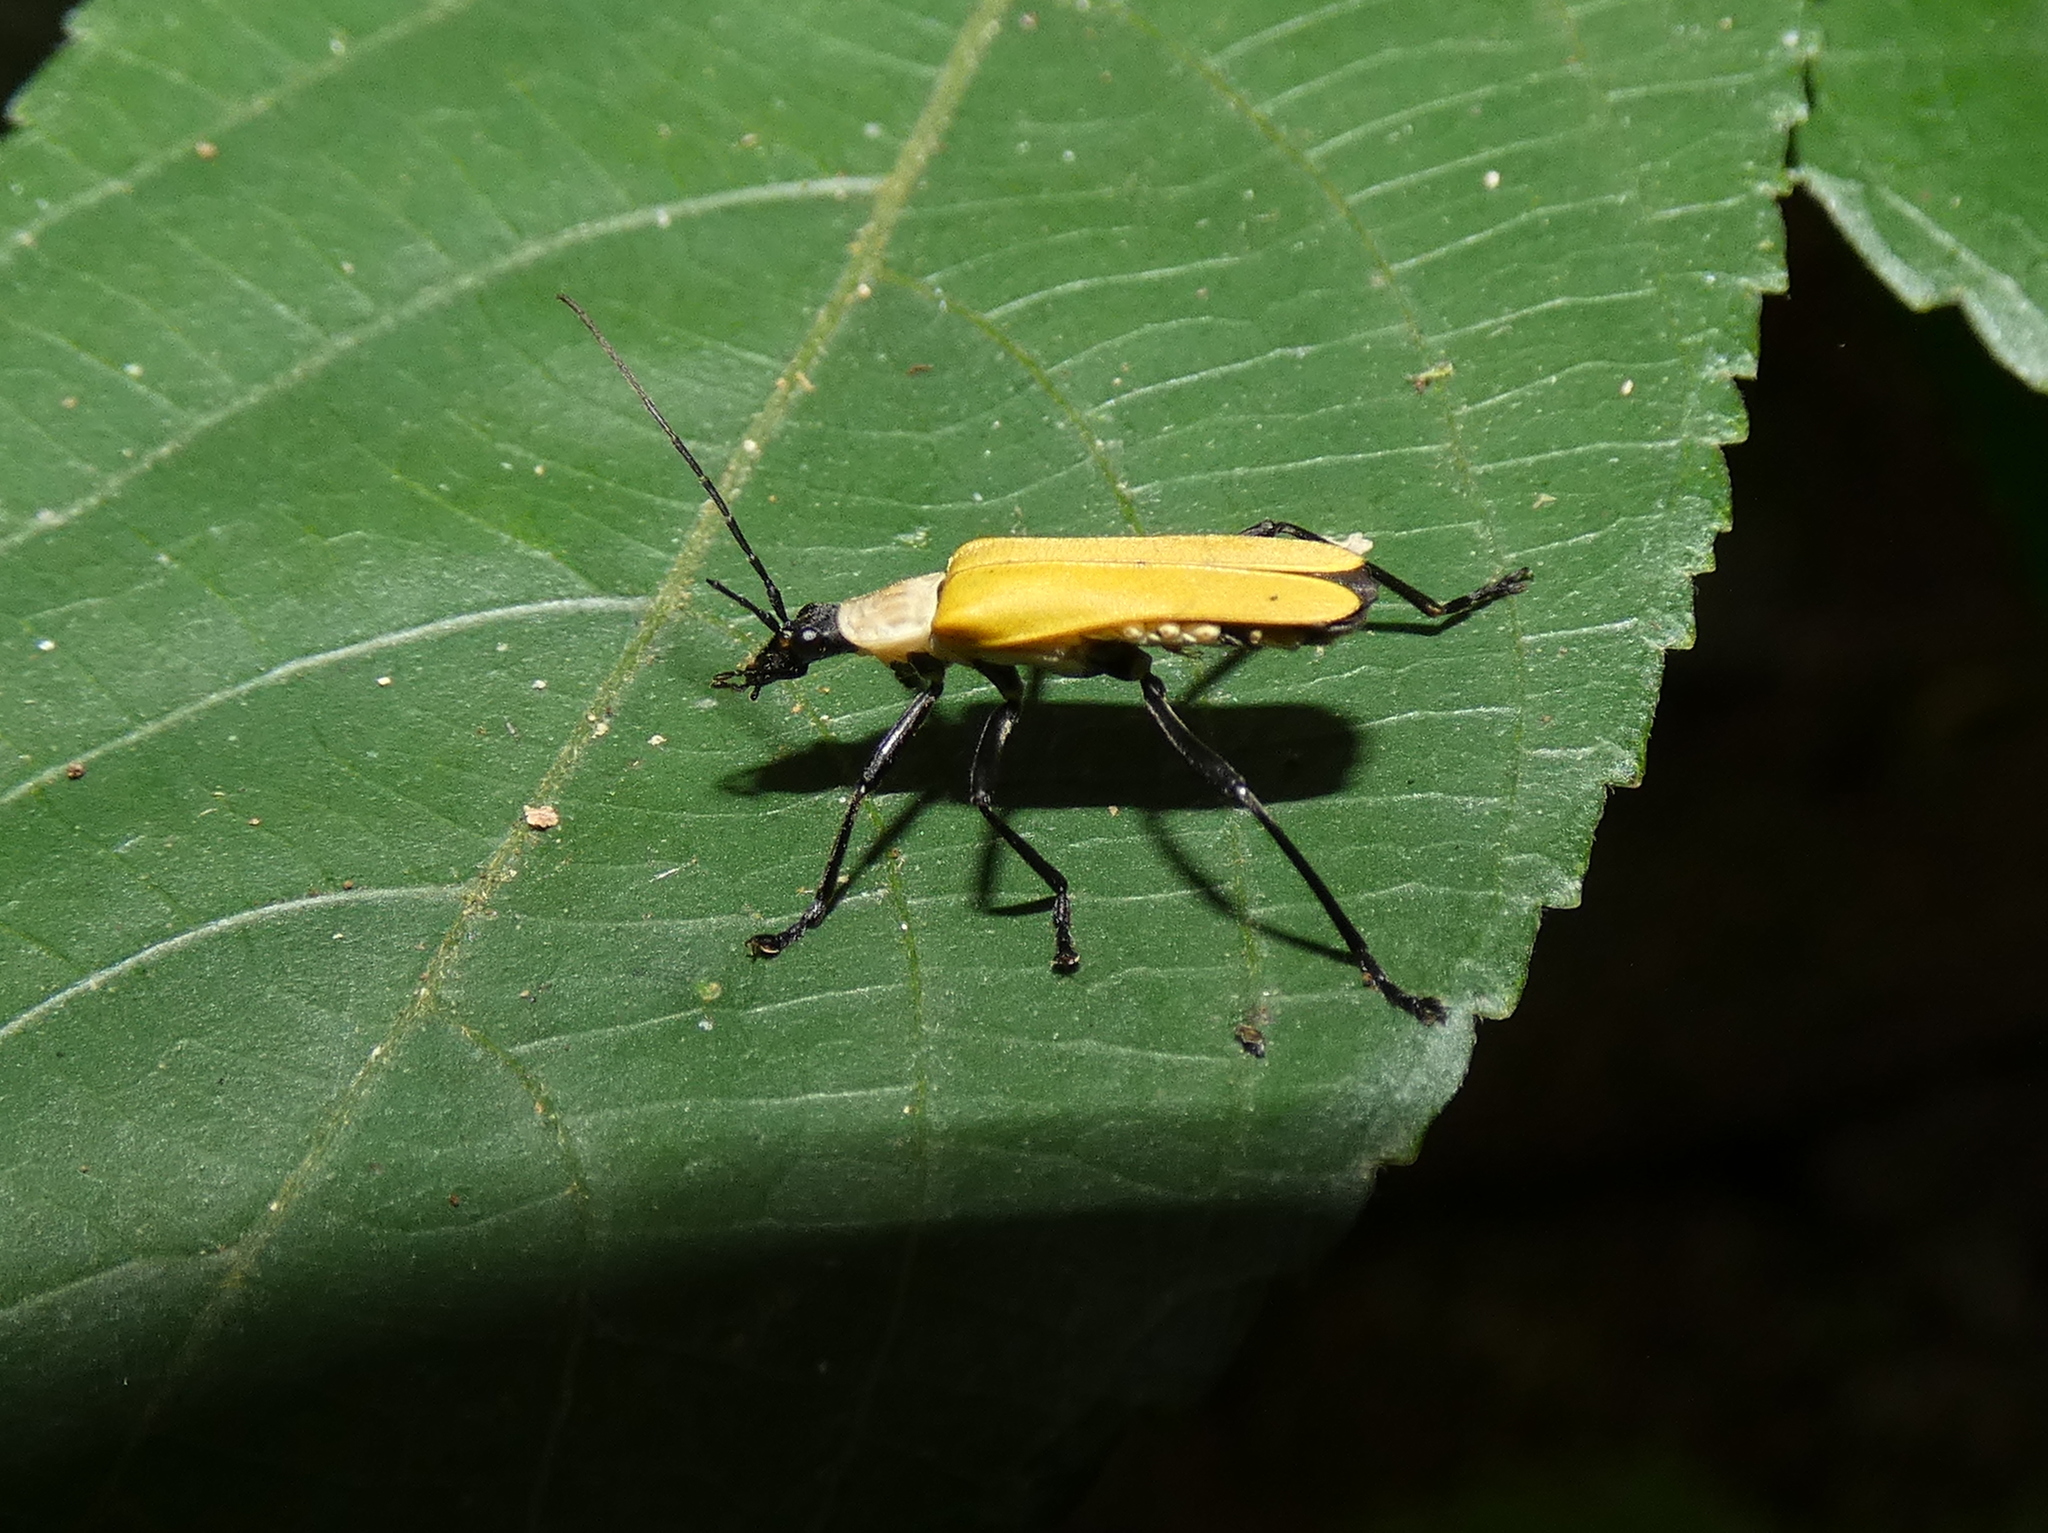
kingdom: Animalia
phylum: Arthropoda
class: Insecta
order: Coleoptera
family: Cantharidae
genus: Chauliognathus
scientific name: Chauliognathus
